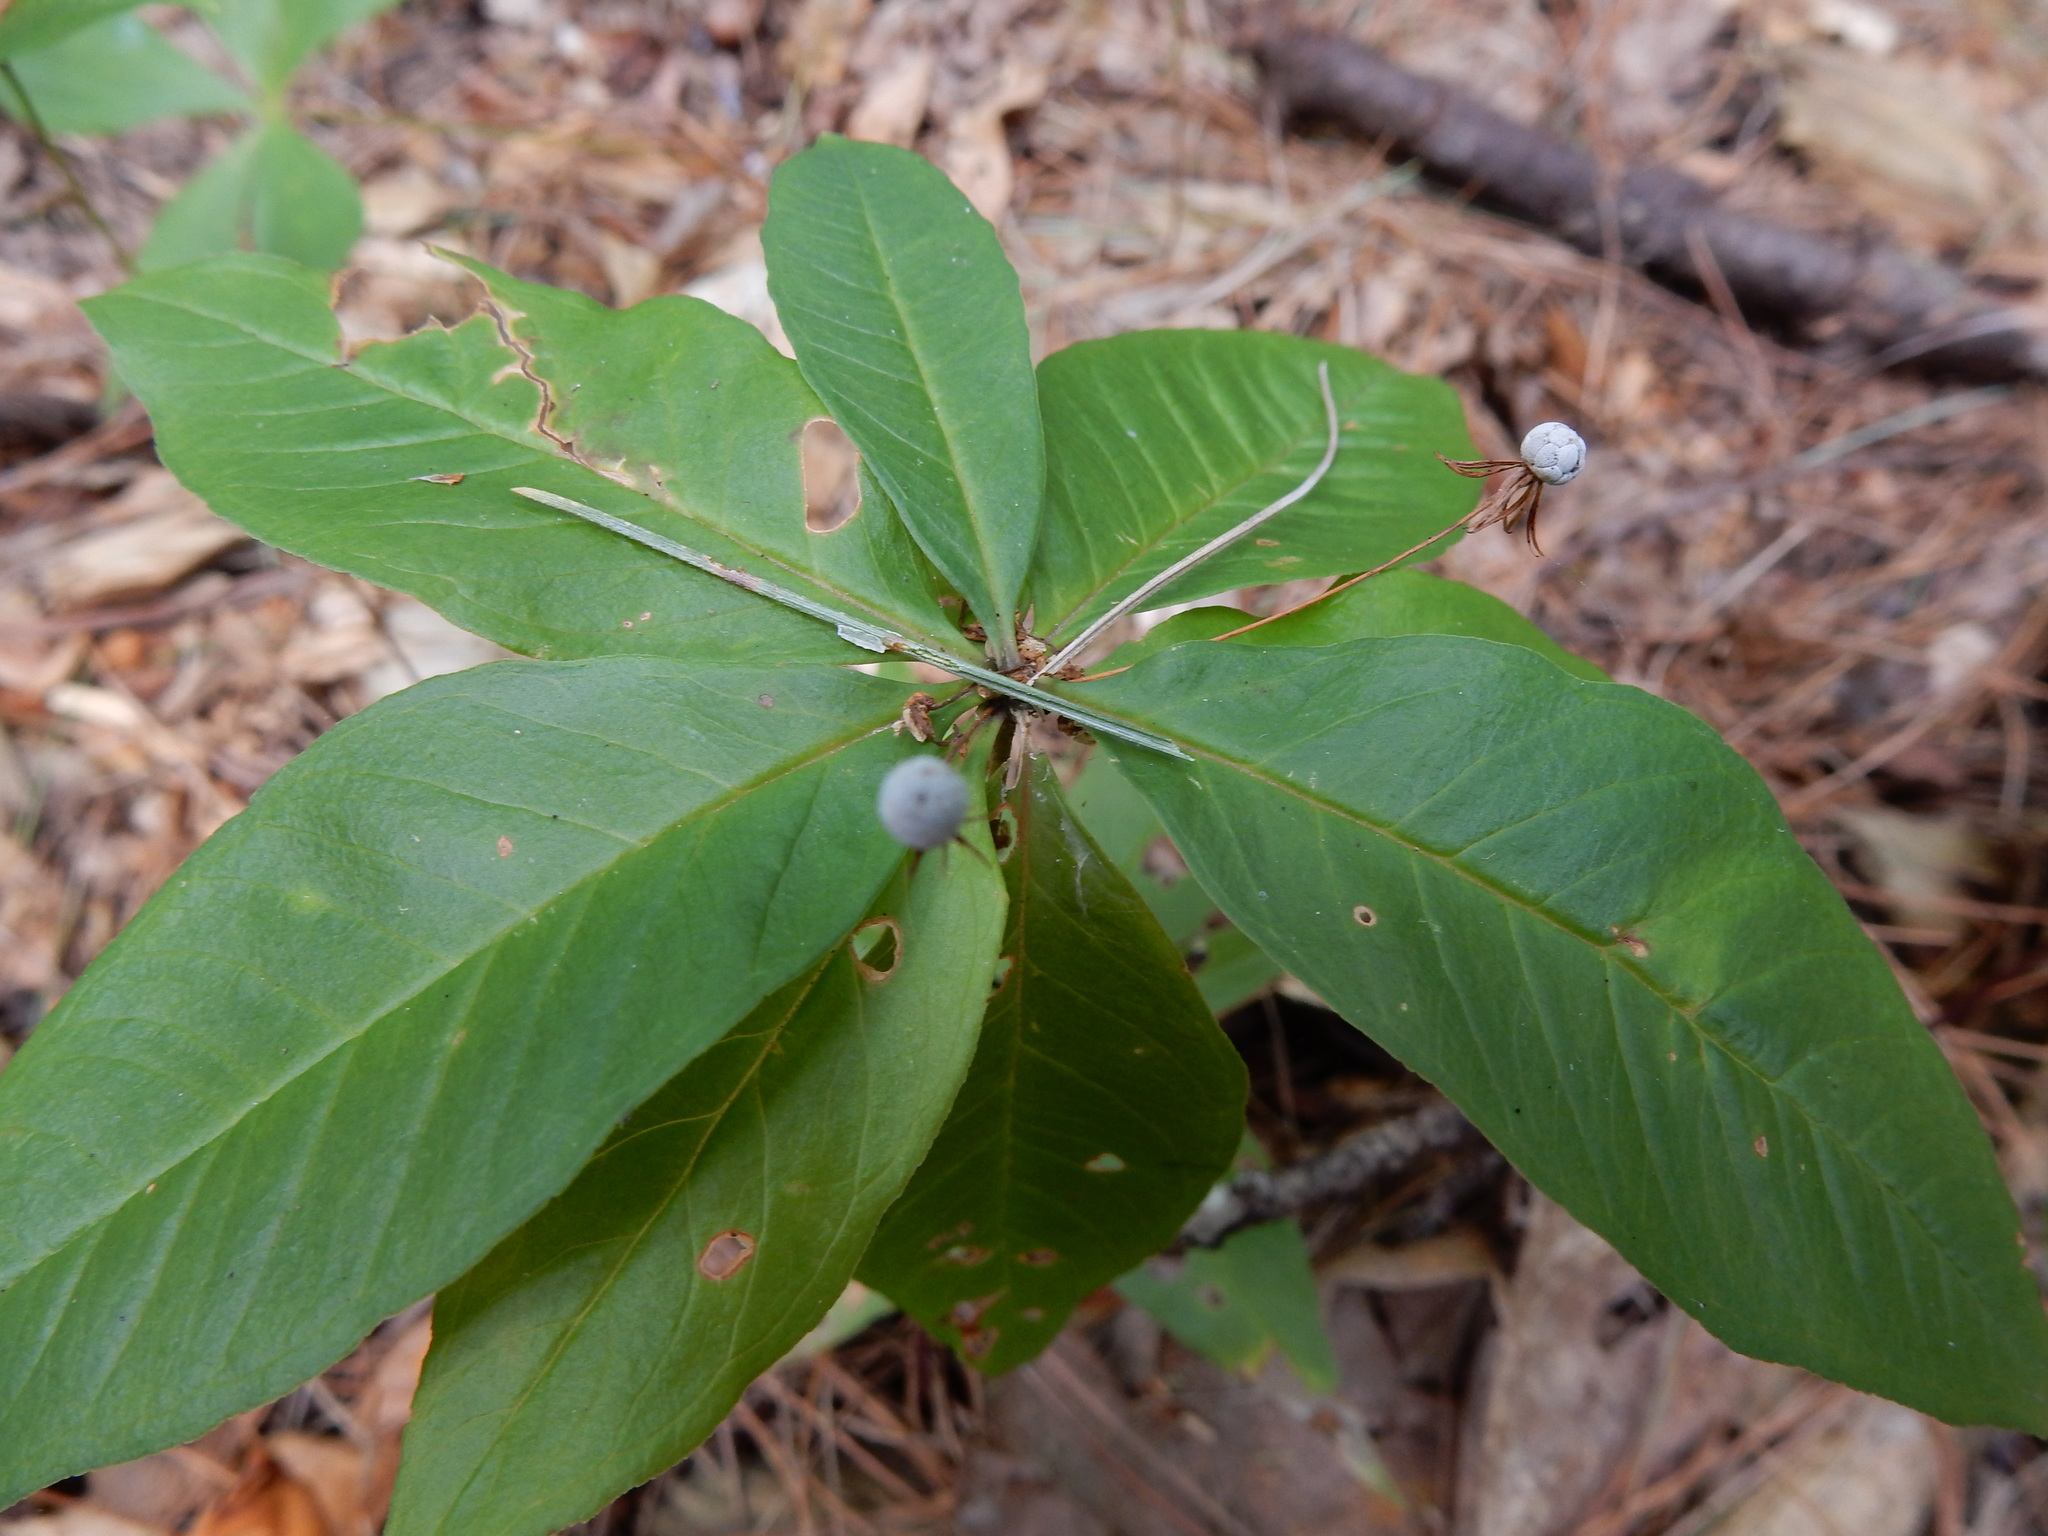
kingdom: Plantae
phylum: Tracheophyta
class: Magnoliopsida
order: Ericales
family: Primulaceae
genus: Lysimachia
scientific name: Lysimachia borealis
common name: American starflower
